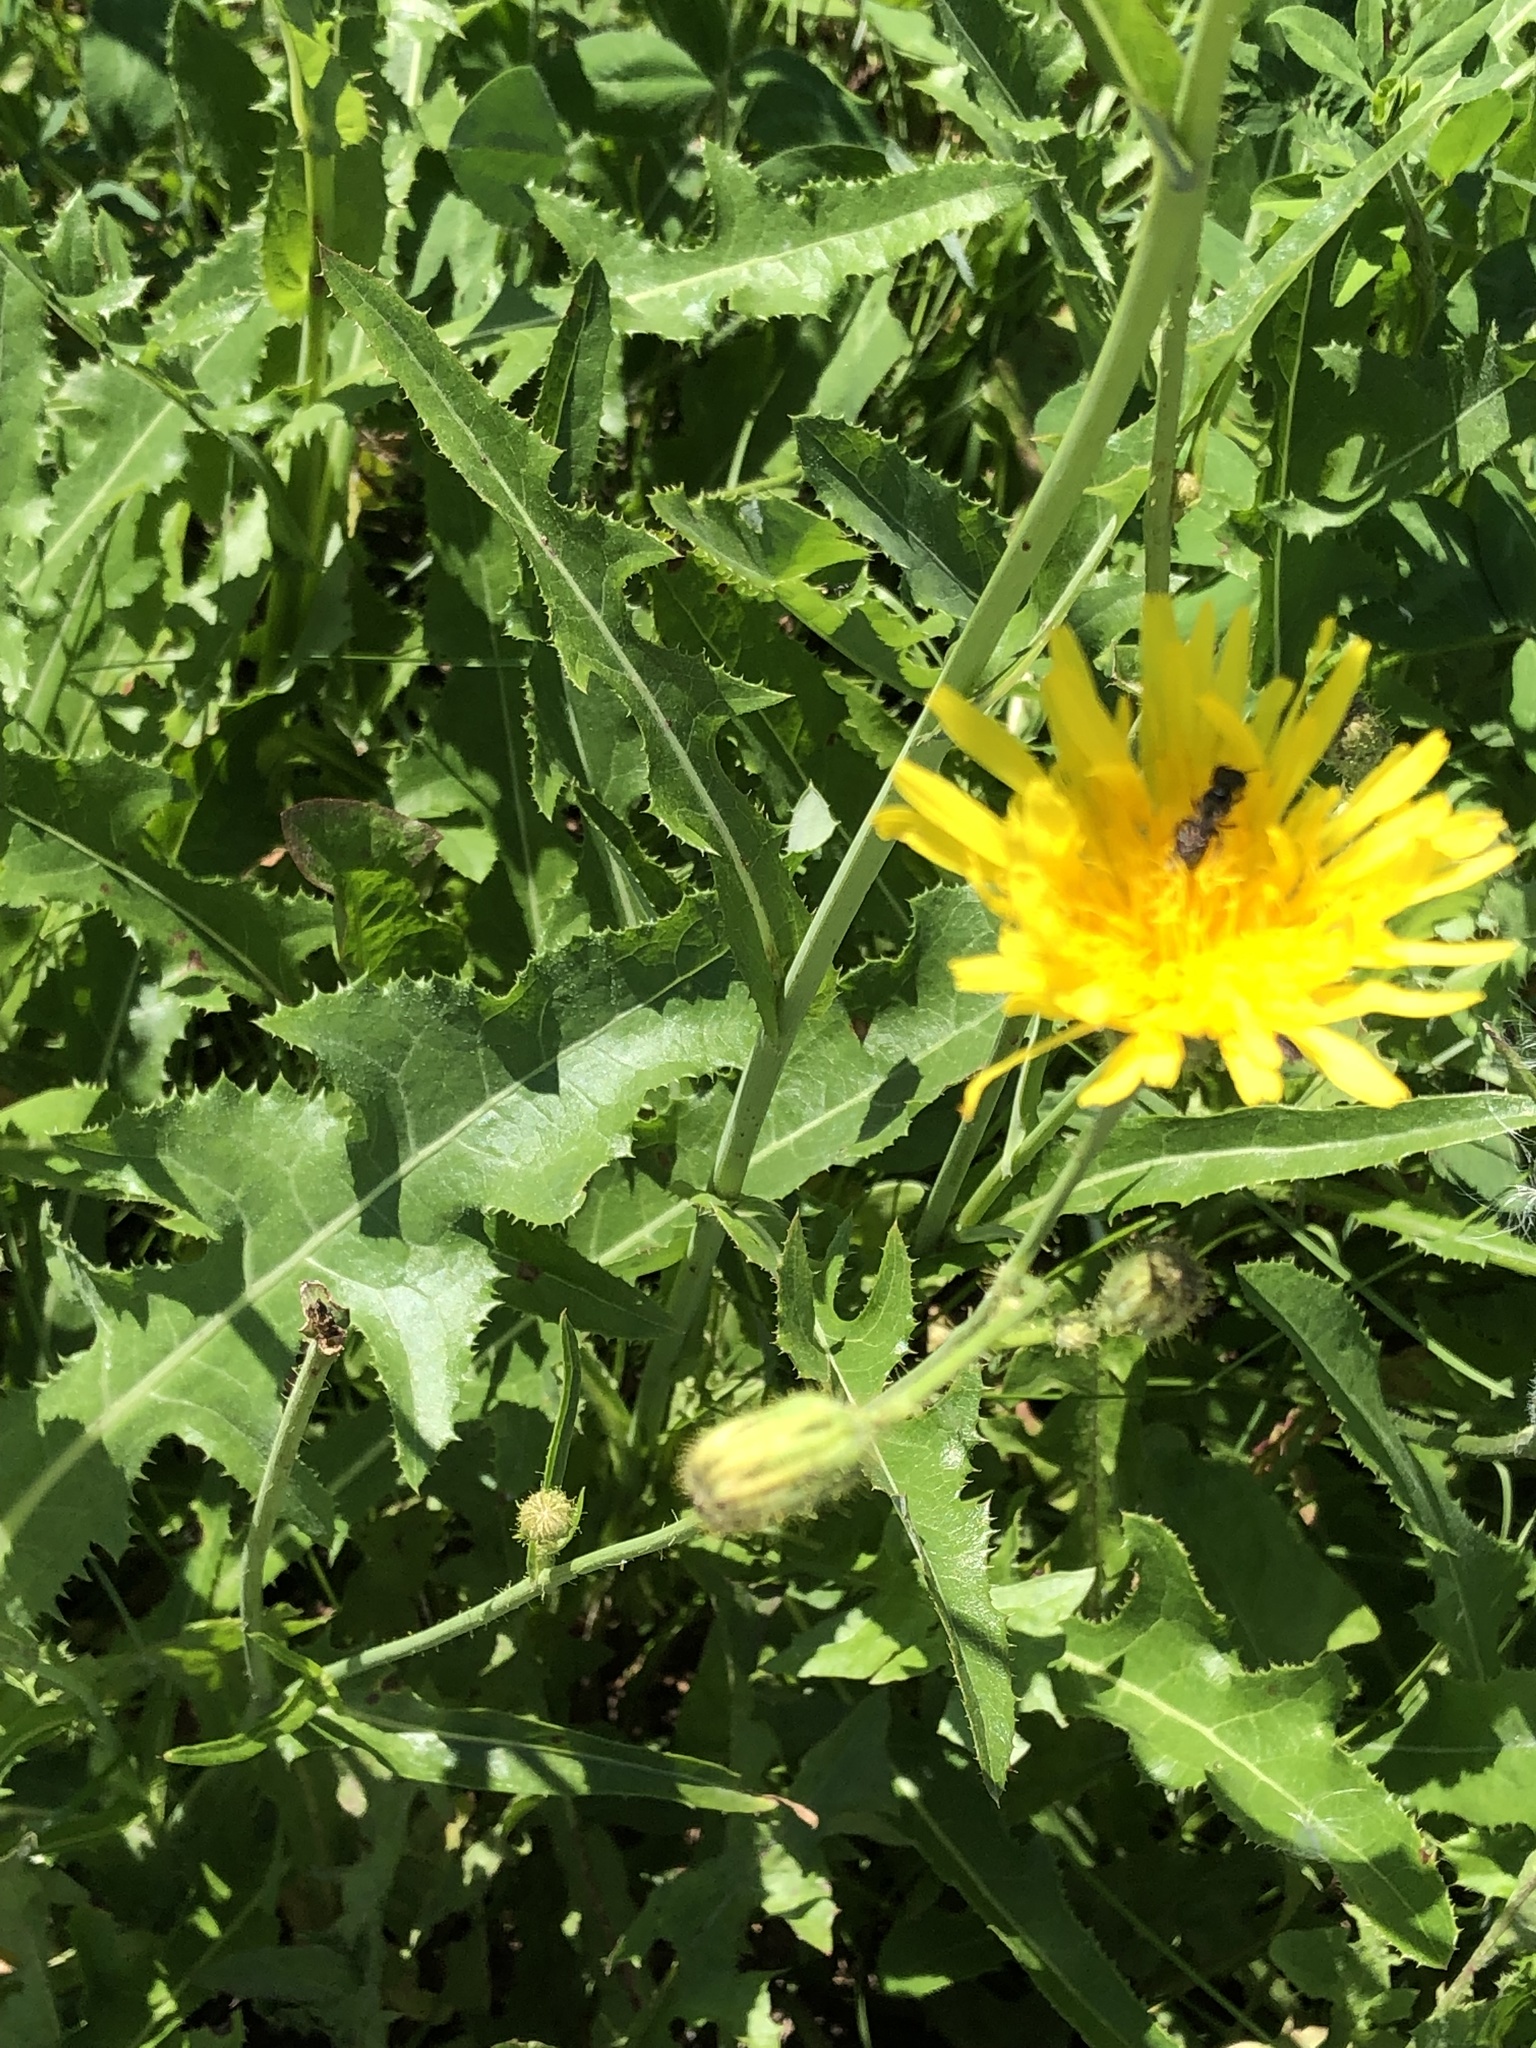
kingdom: Plantae
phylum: Tracheophyta
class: Magnoliopsida
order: Asterales
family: Asteraceae
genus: Sonchus
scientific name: Sonchus arvensis
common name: Perennial sow-thistle
